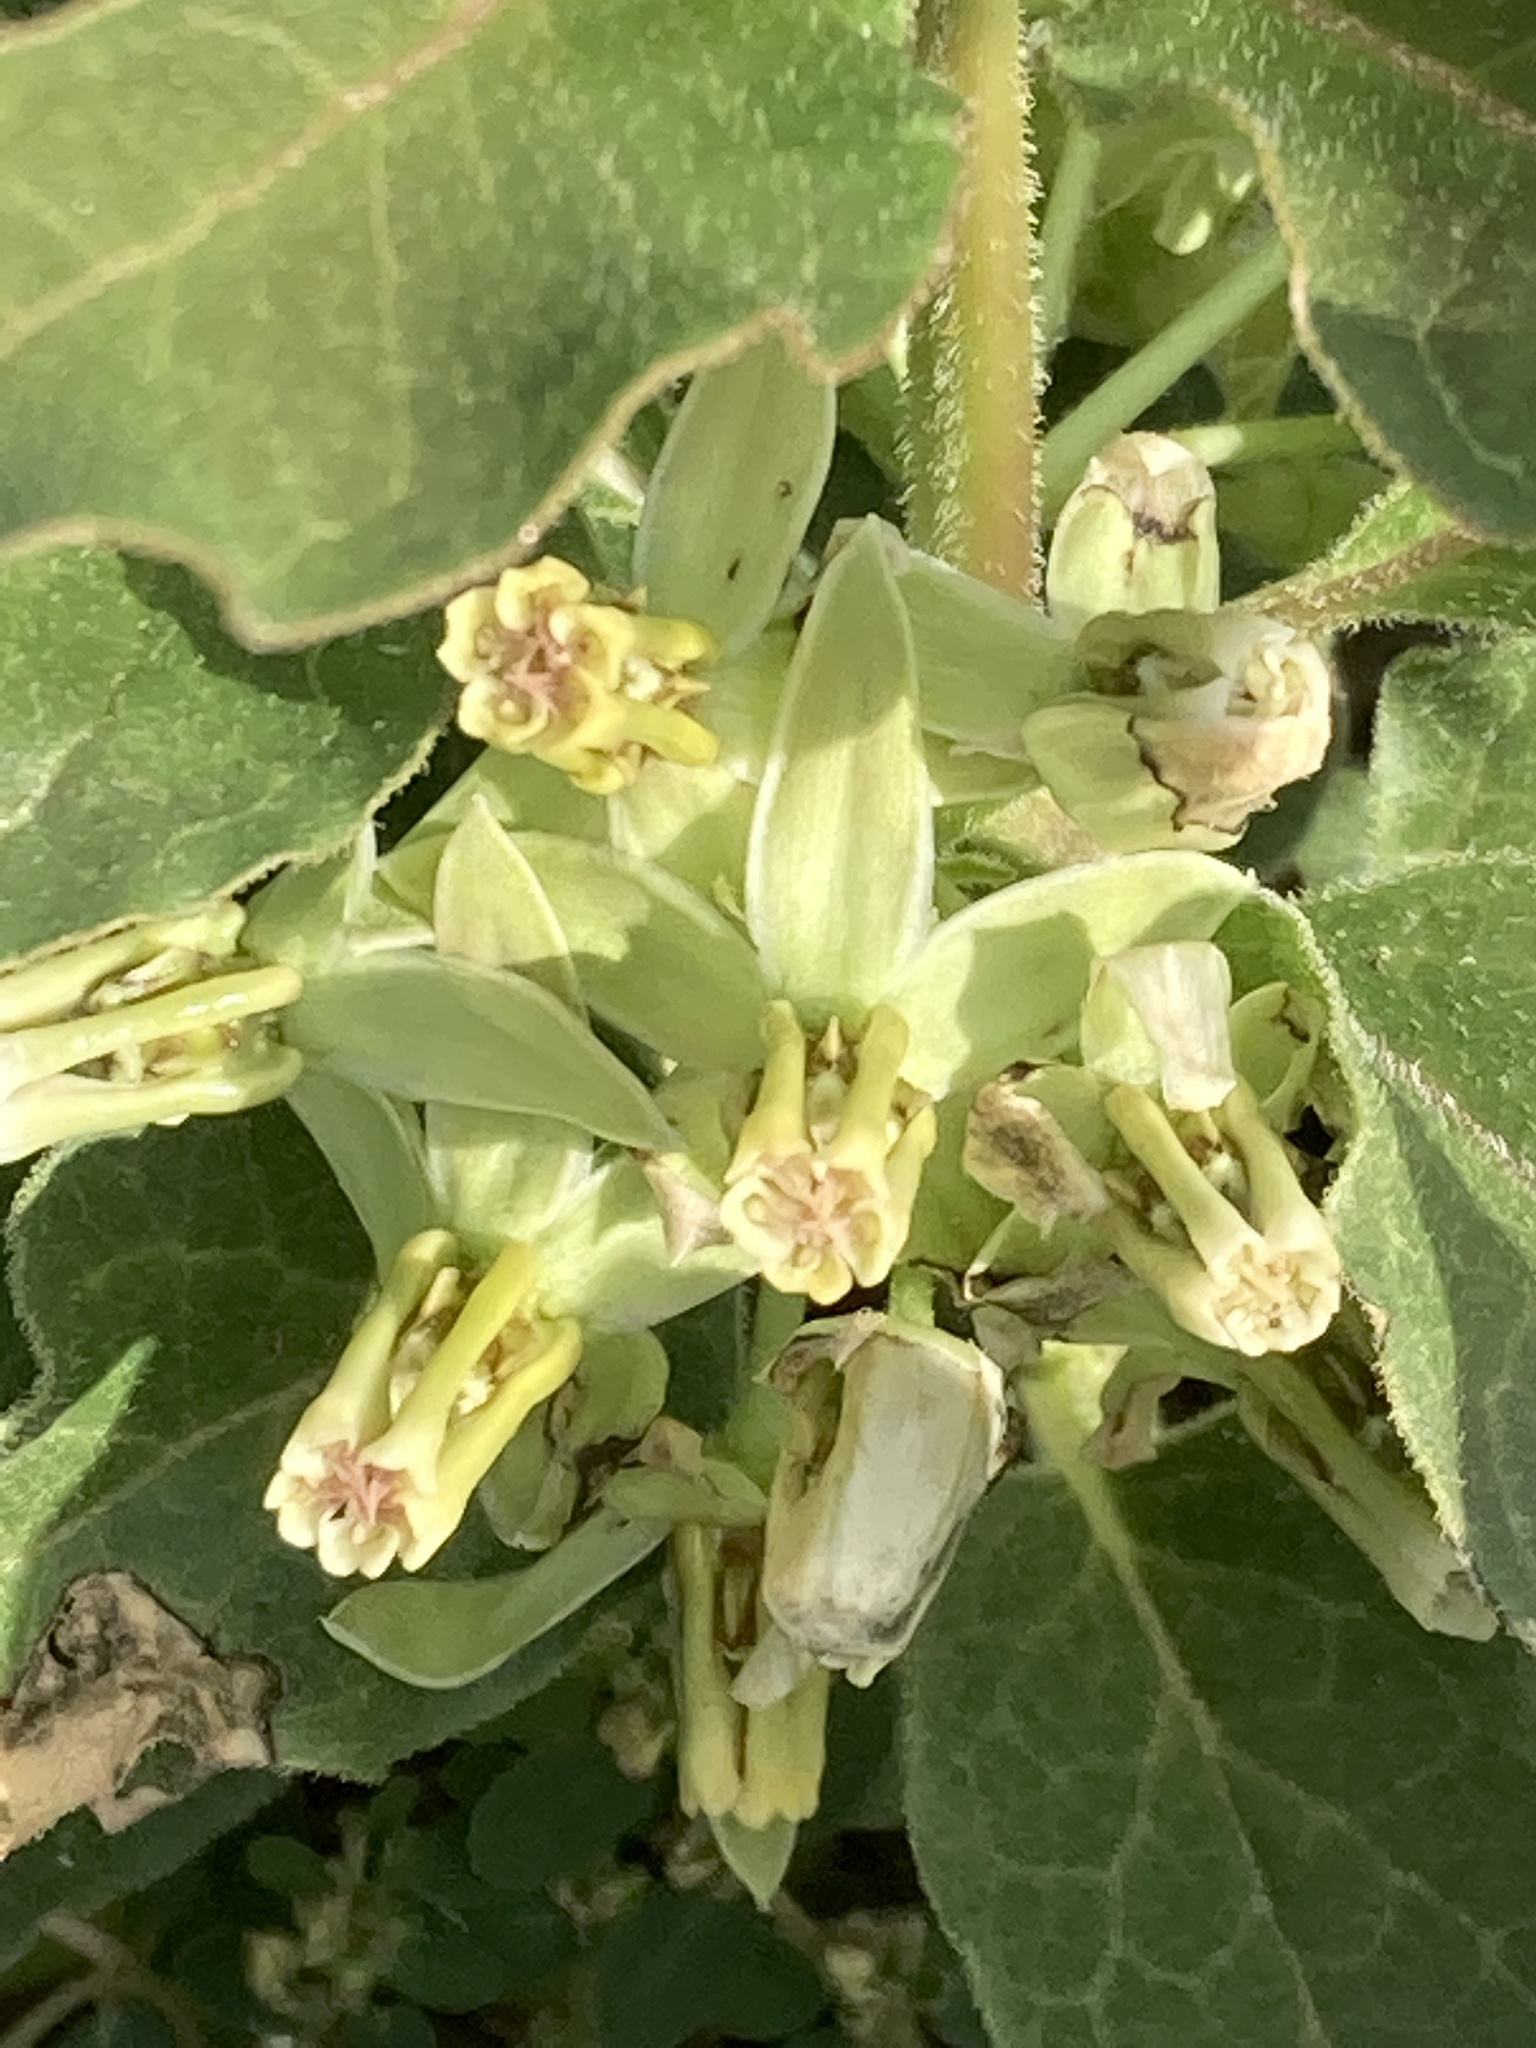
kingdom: Plantae
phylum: Tracheophyta
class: Magnoliopsida
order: Gentianales
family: Apocynaceae
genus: Asclepias
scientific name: Asclepias oenotheroides
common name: Zizotes milkweed
